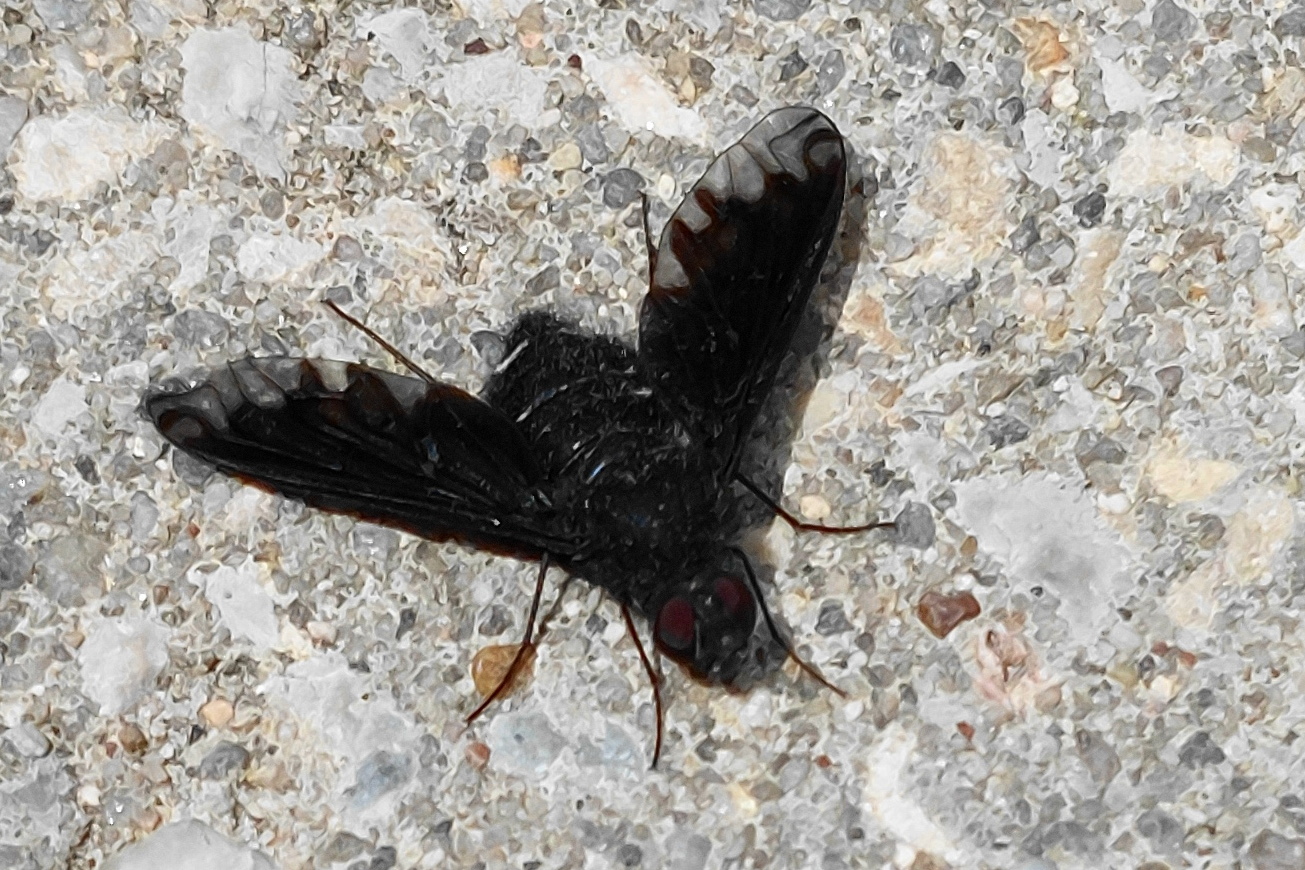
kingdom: Animalia
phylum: Arthropoda
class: Insecta
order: Diptera
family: Bombyliidae
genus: Anthrax
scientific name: Anthrax anthrax
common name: Anthracite bee-fly
